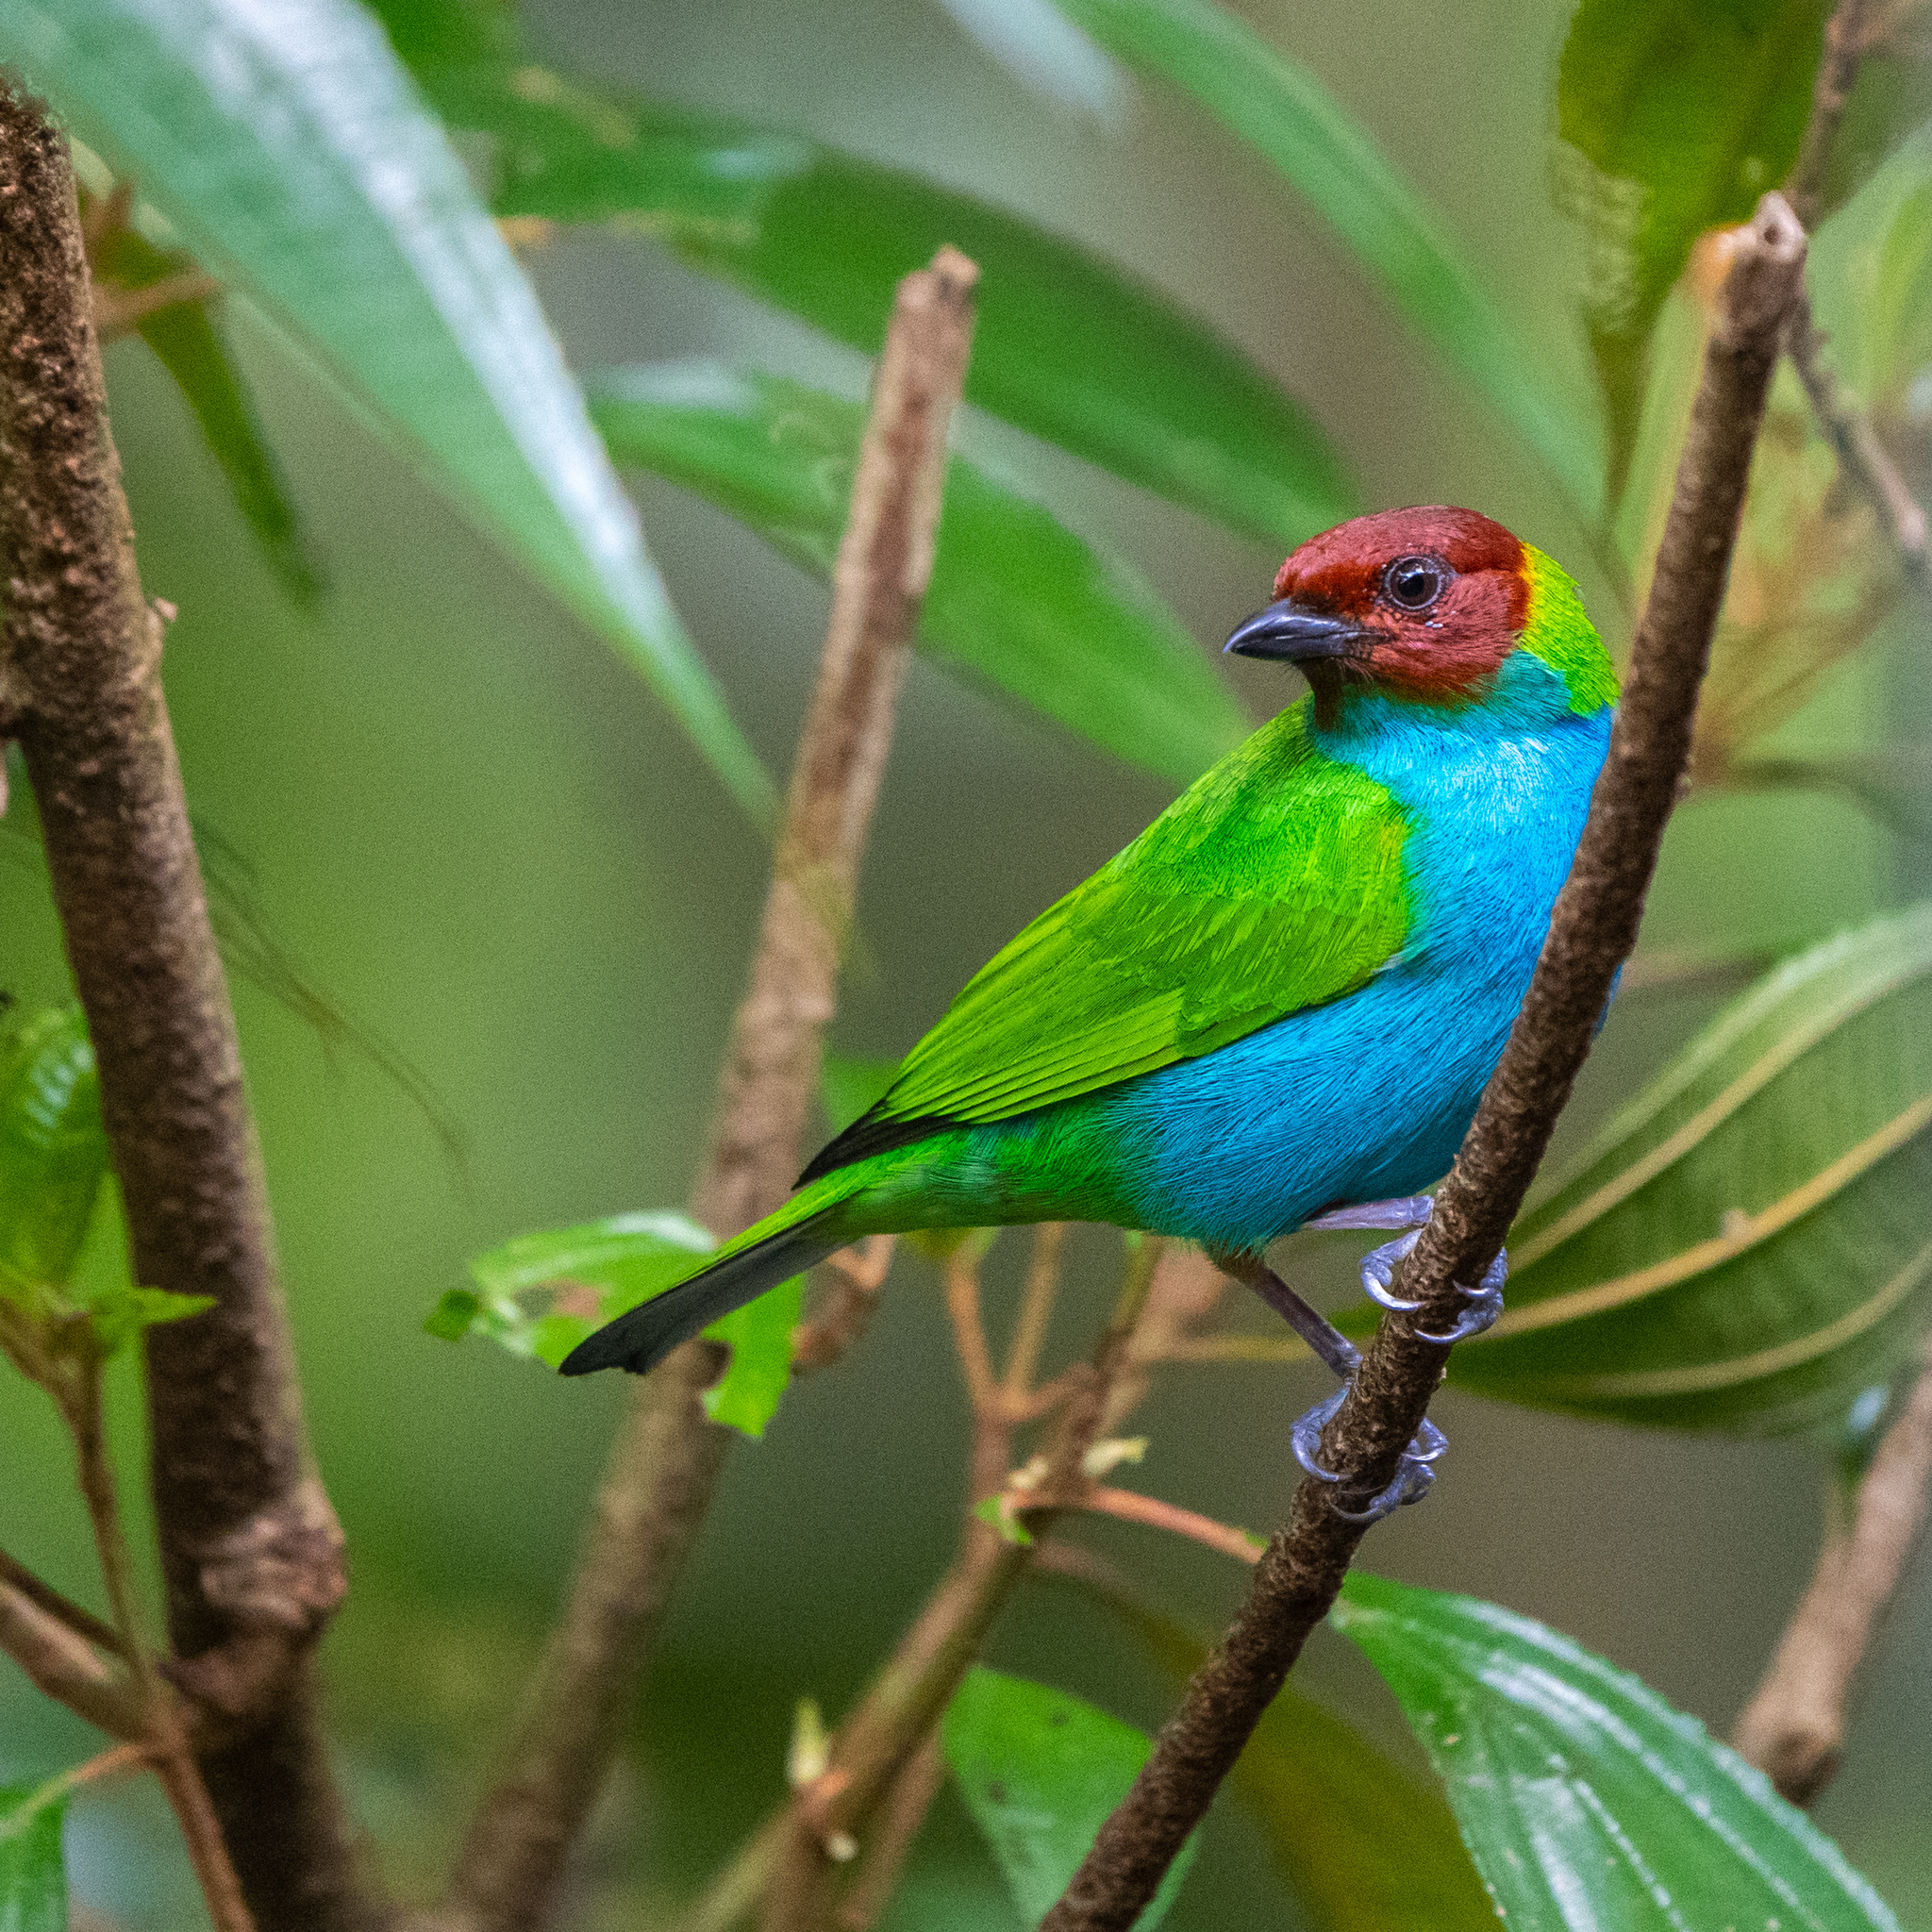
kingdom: Animalia
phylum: Chordata
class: Aves
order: Passeriformes
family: Thraupidae
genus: Tangara
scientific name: Tangara gyrola
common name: Bay-headed tanager
